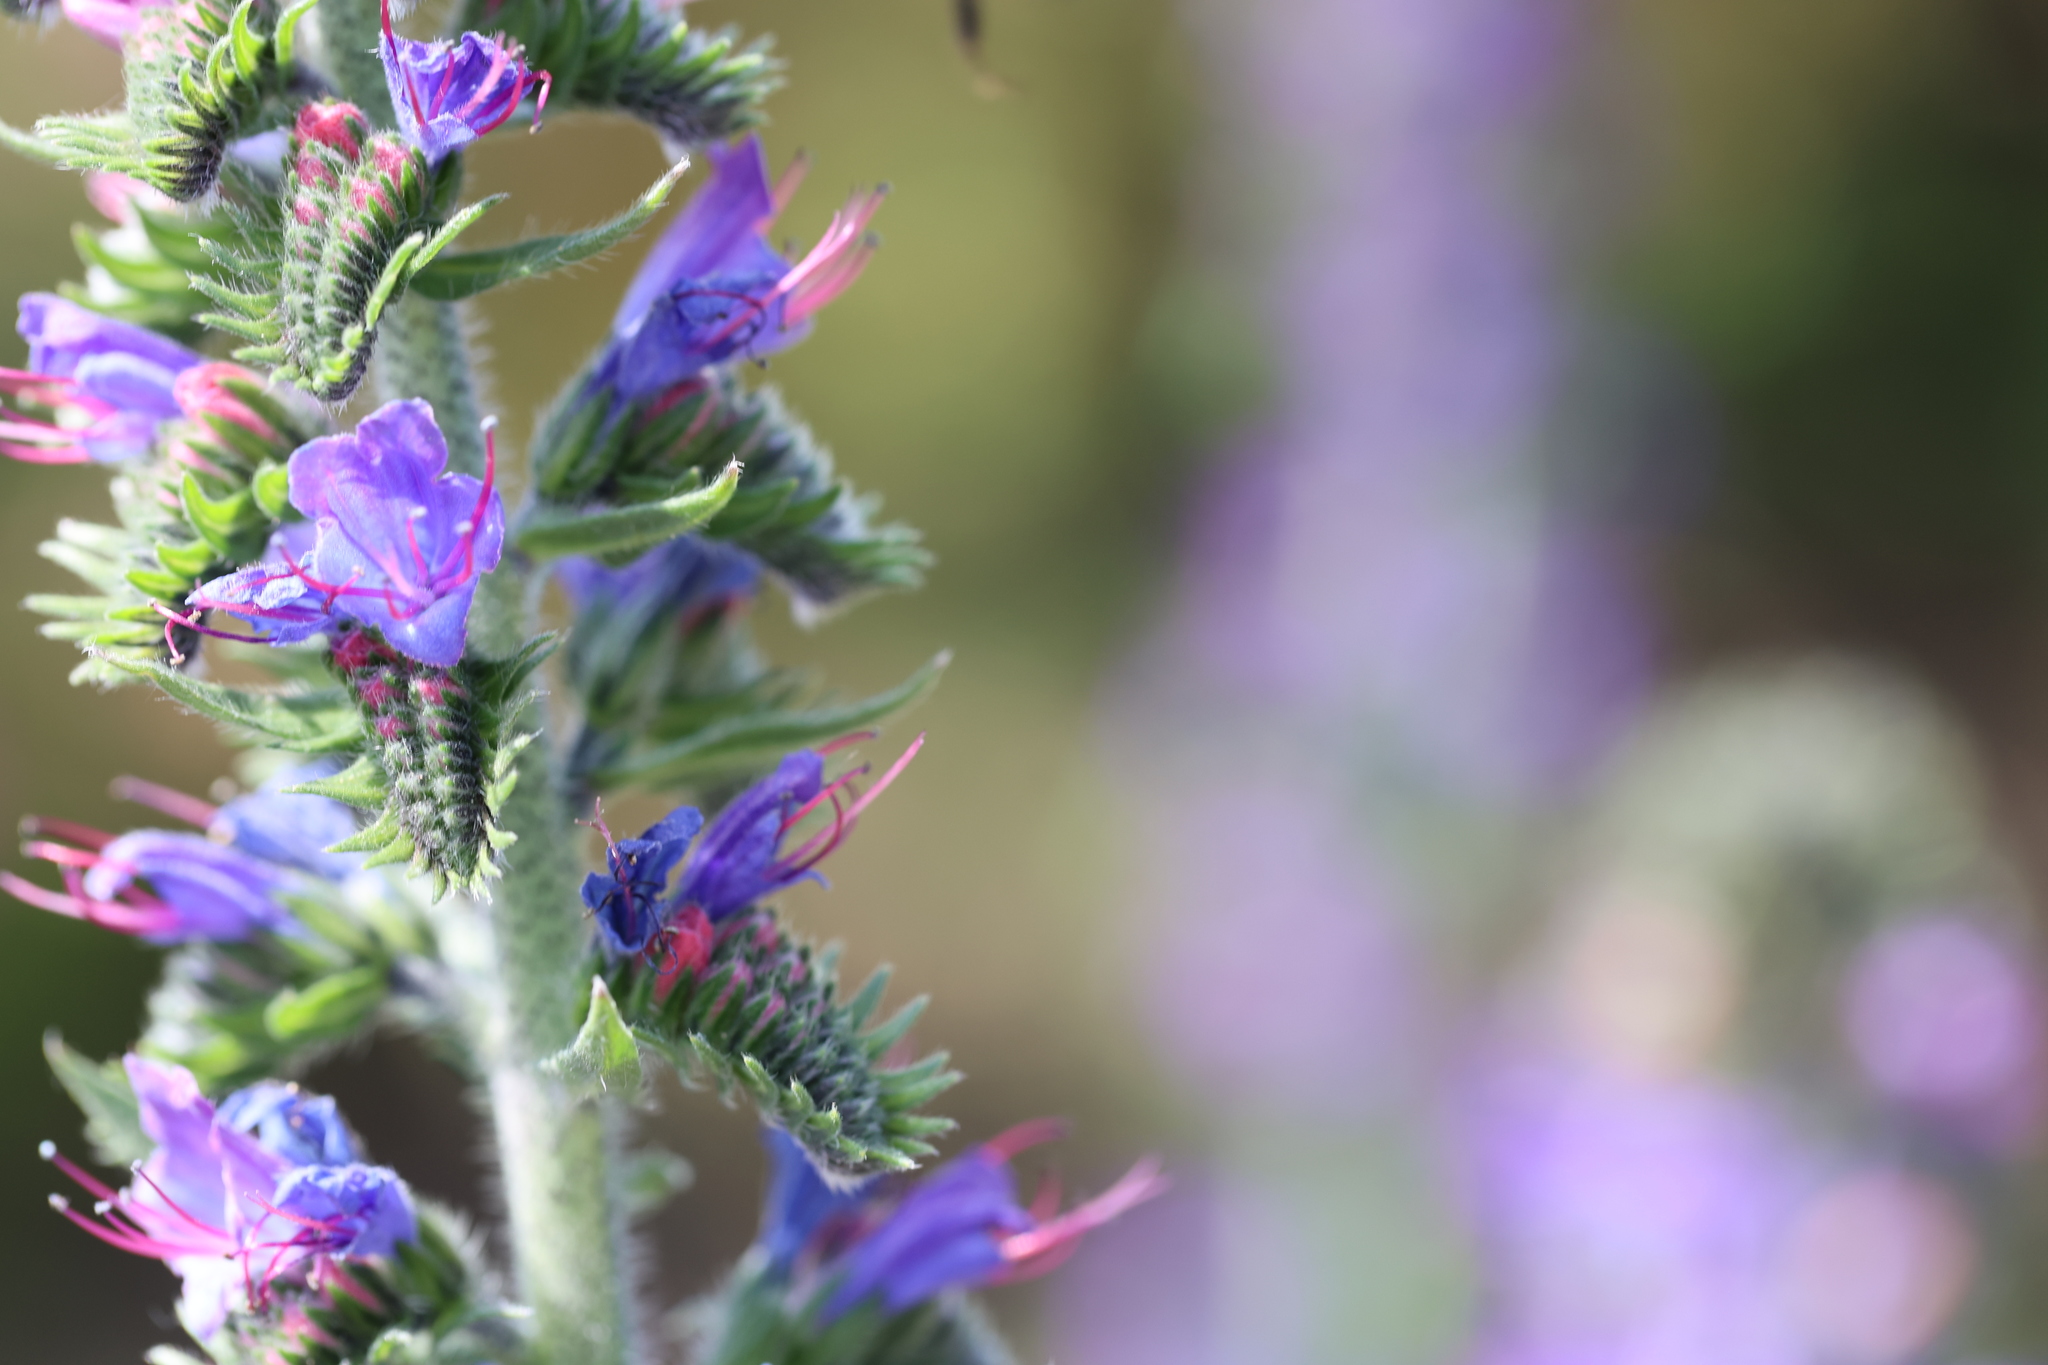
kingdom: Plantae
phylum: Tracheophyta
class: Magnoliopsida
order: Boraginales
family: Boraginaceae
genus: Echium
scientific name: Echium vulgare
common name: Common viper's bugloss
